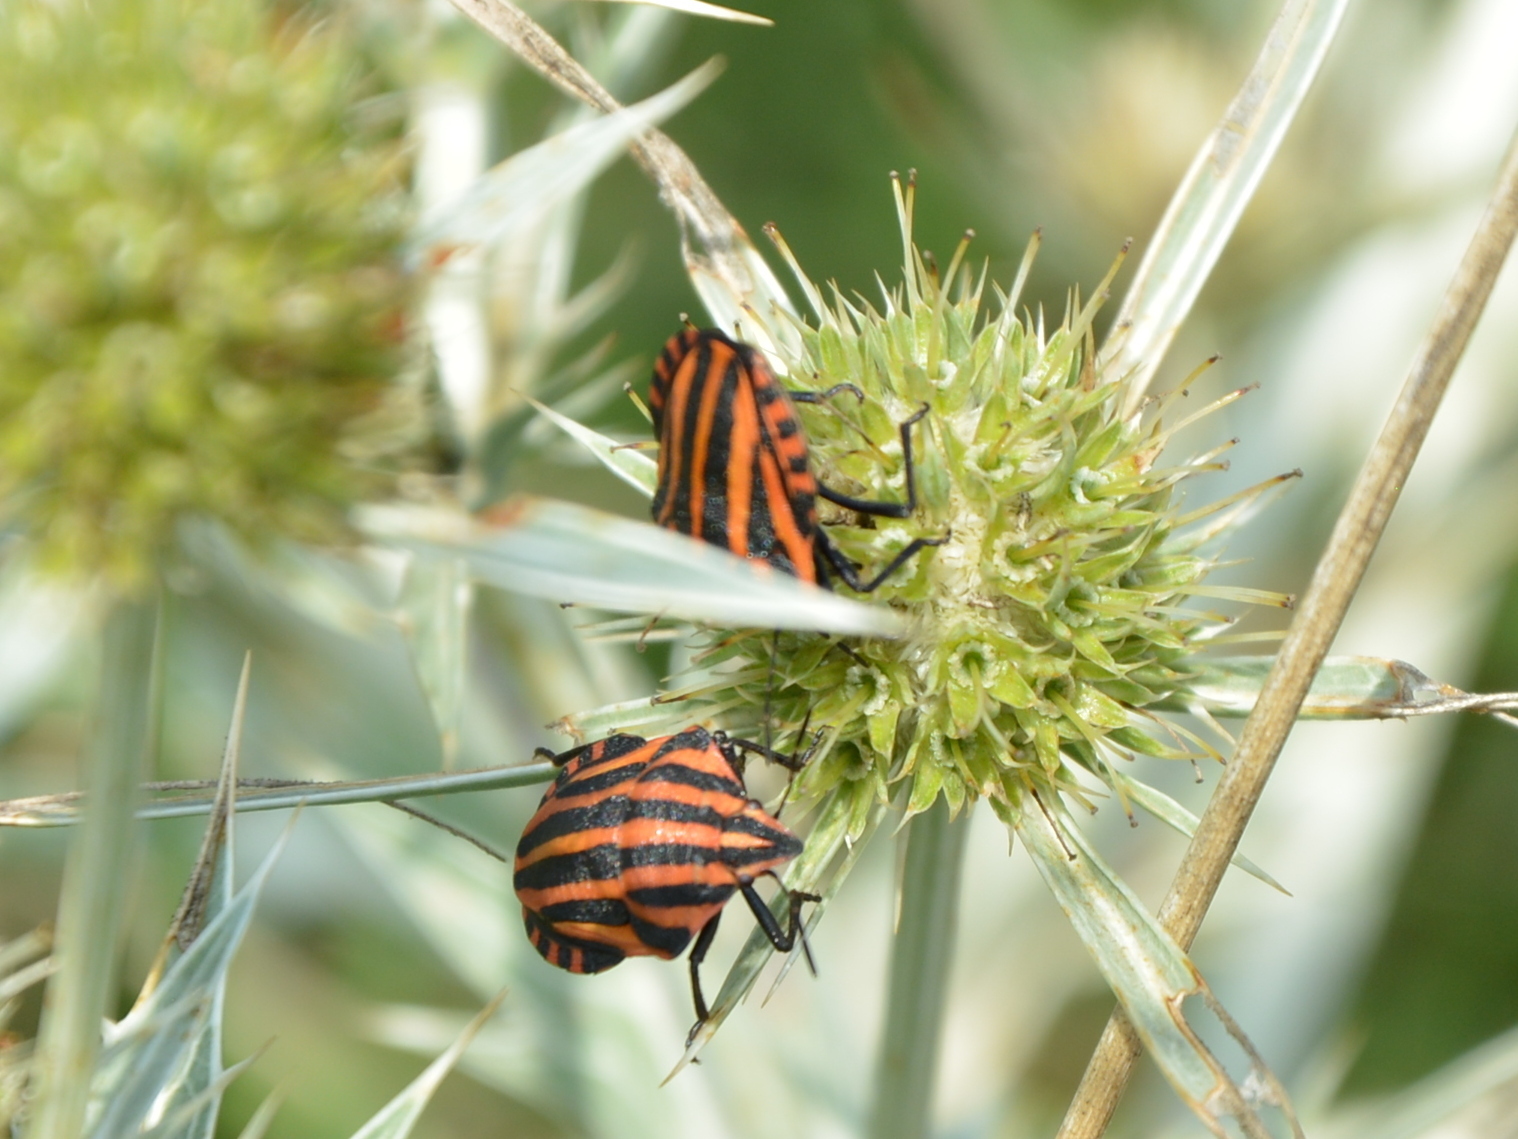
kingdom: Animalia
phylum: Arthropoda
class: Insecta
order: Hemiptera
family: Pentatomidae
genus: Graphosoma
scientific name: Graphosoma italicum
